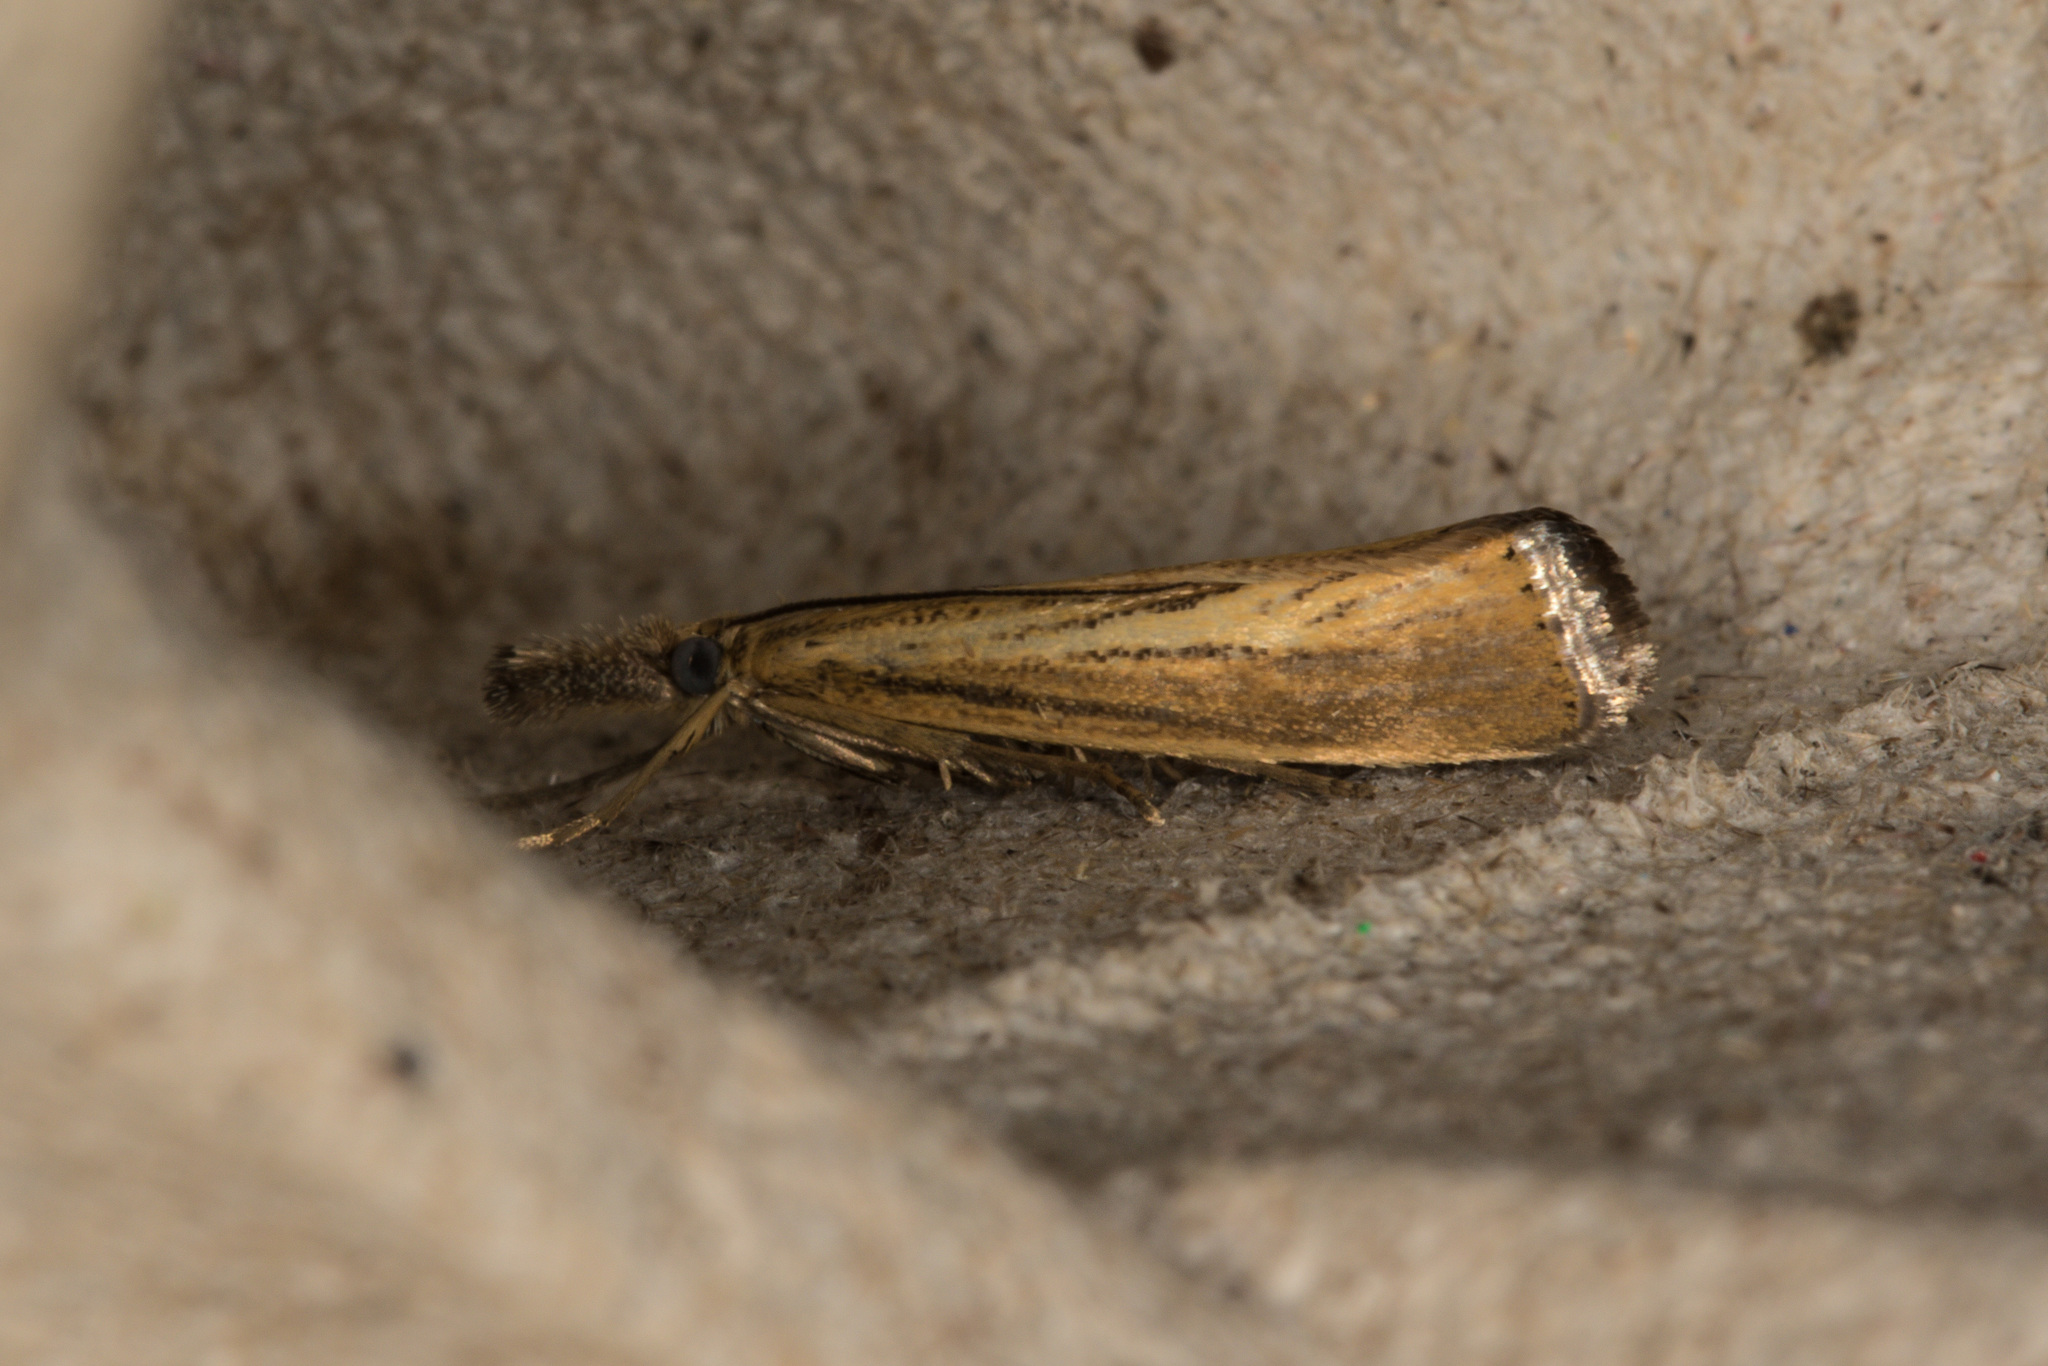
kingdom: Animalia
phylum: Arthropoda
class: Insecta
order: Lepidoptera
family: Crambidae
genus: Agriphila
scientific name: Agriphila straminella
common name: Straw grass-veneer
